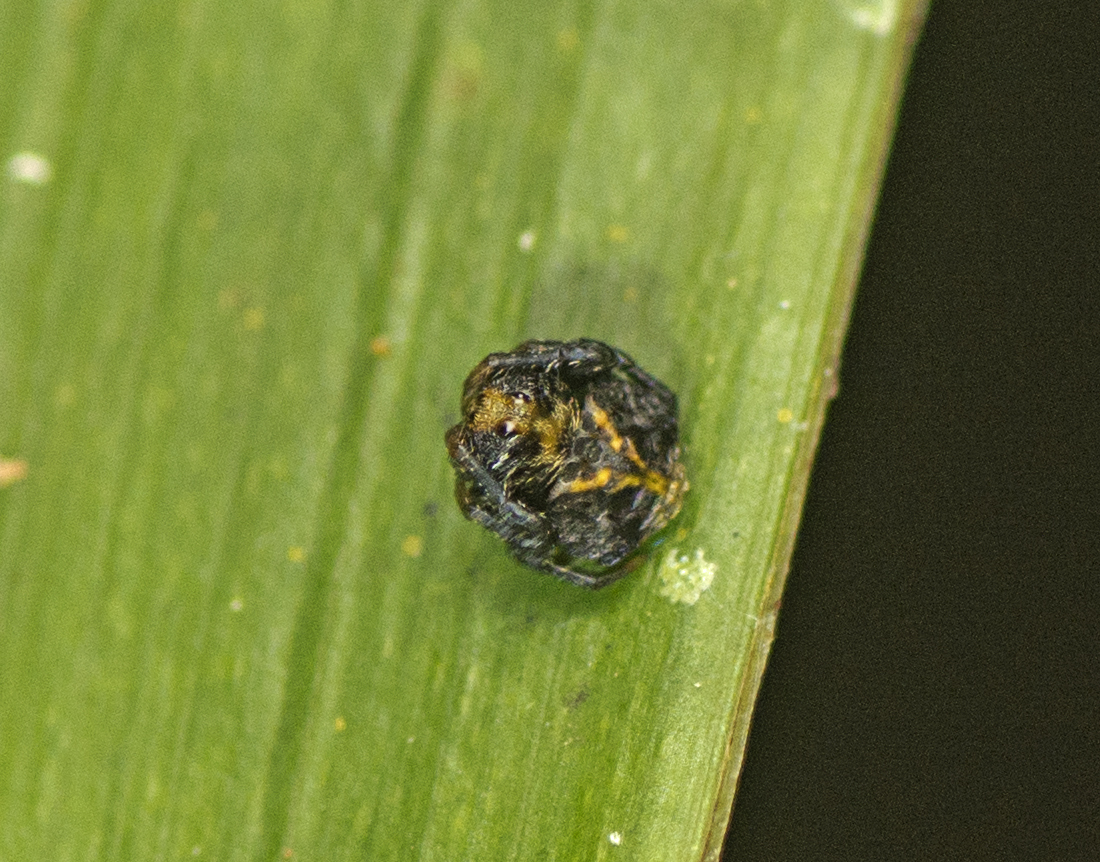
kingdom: Animalia
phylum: Arthropoda
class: Arachnida
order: Araneae
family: Arkyidae
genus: Arkys
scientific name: Arkys curtulus
